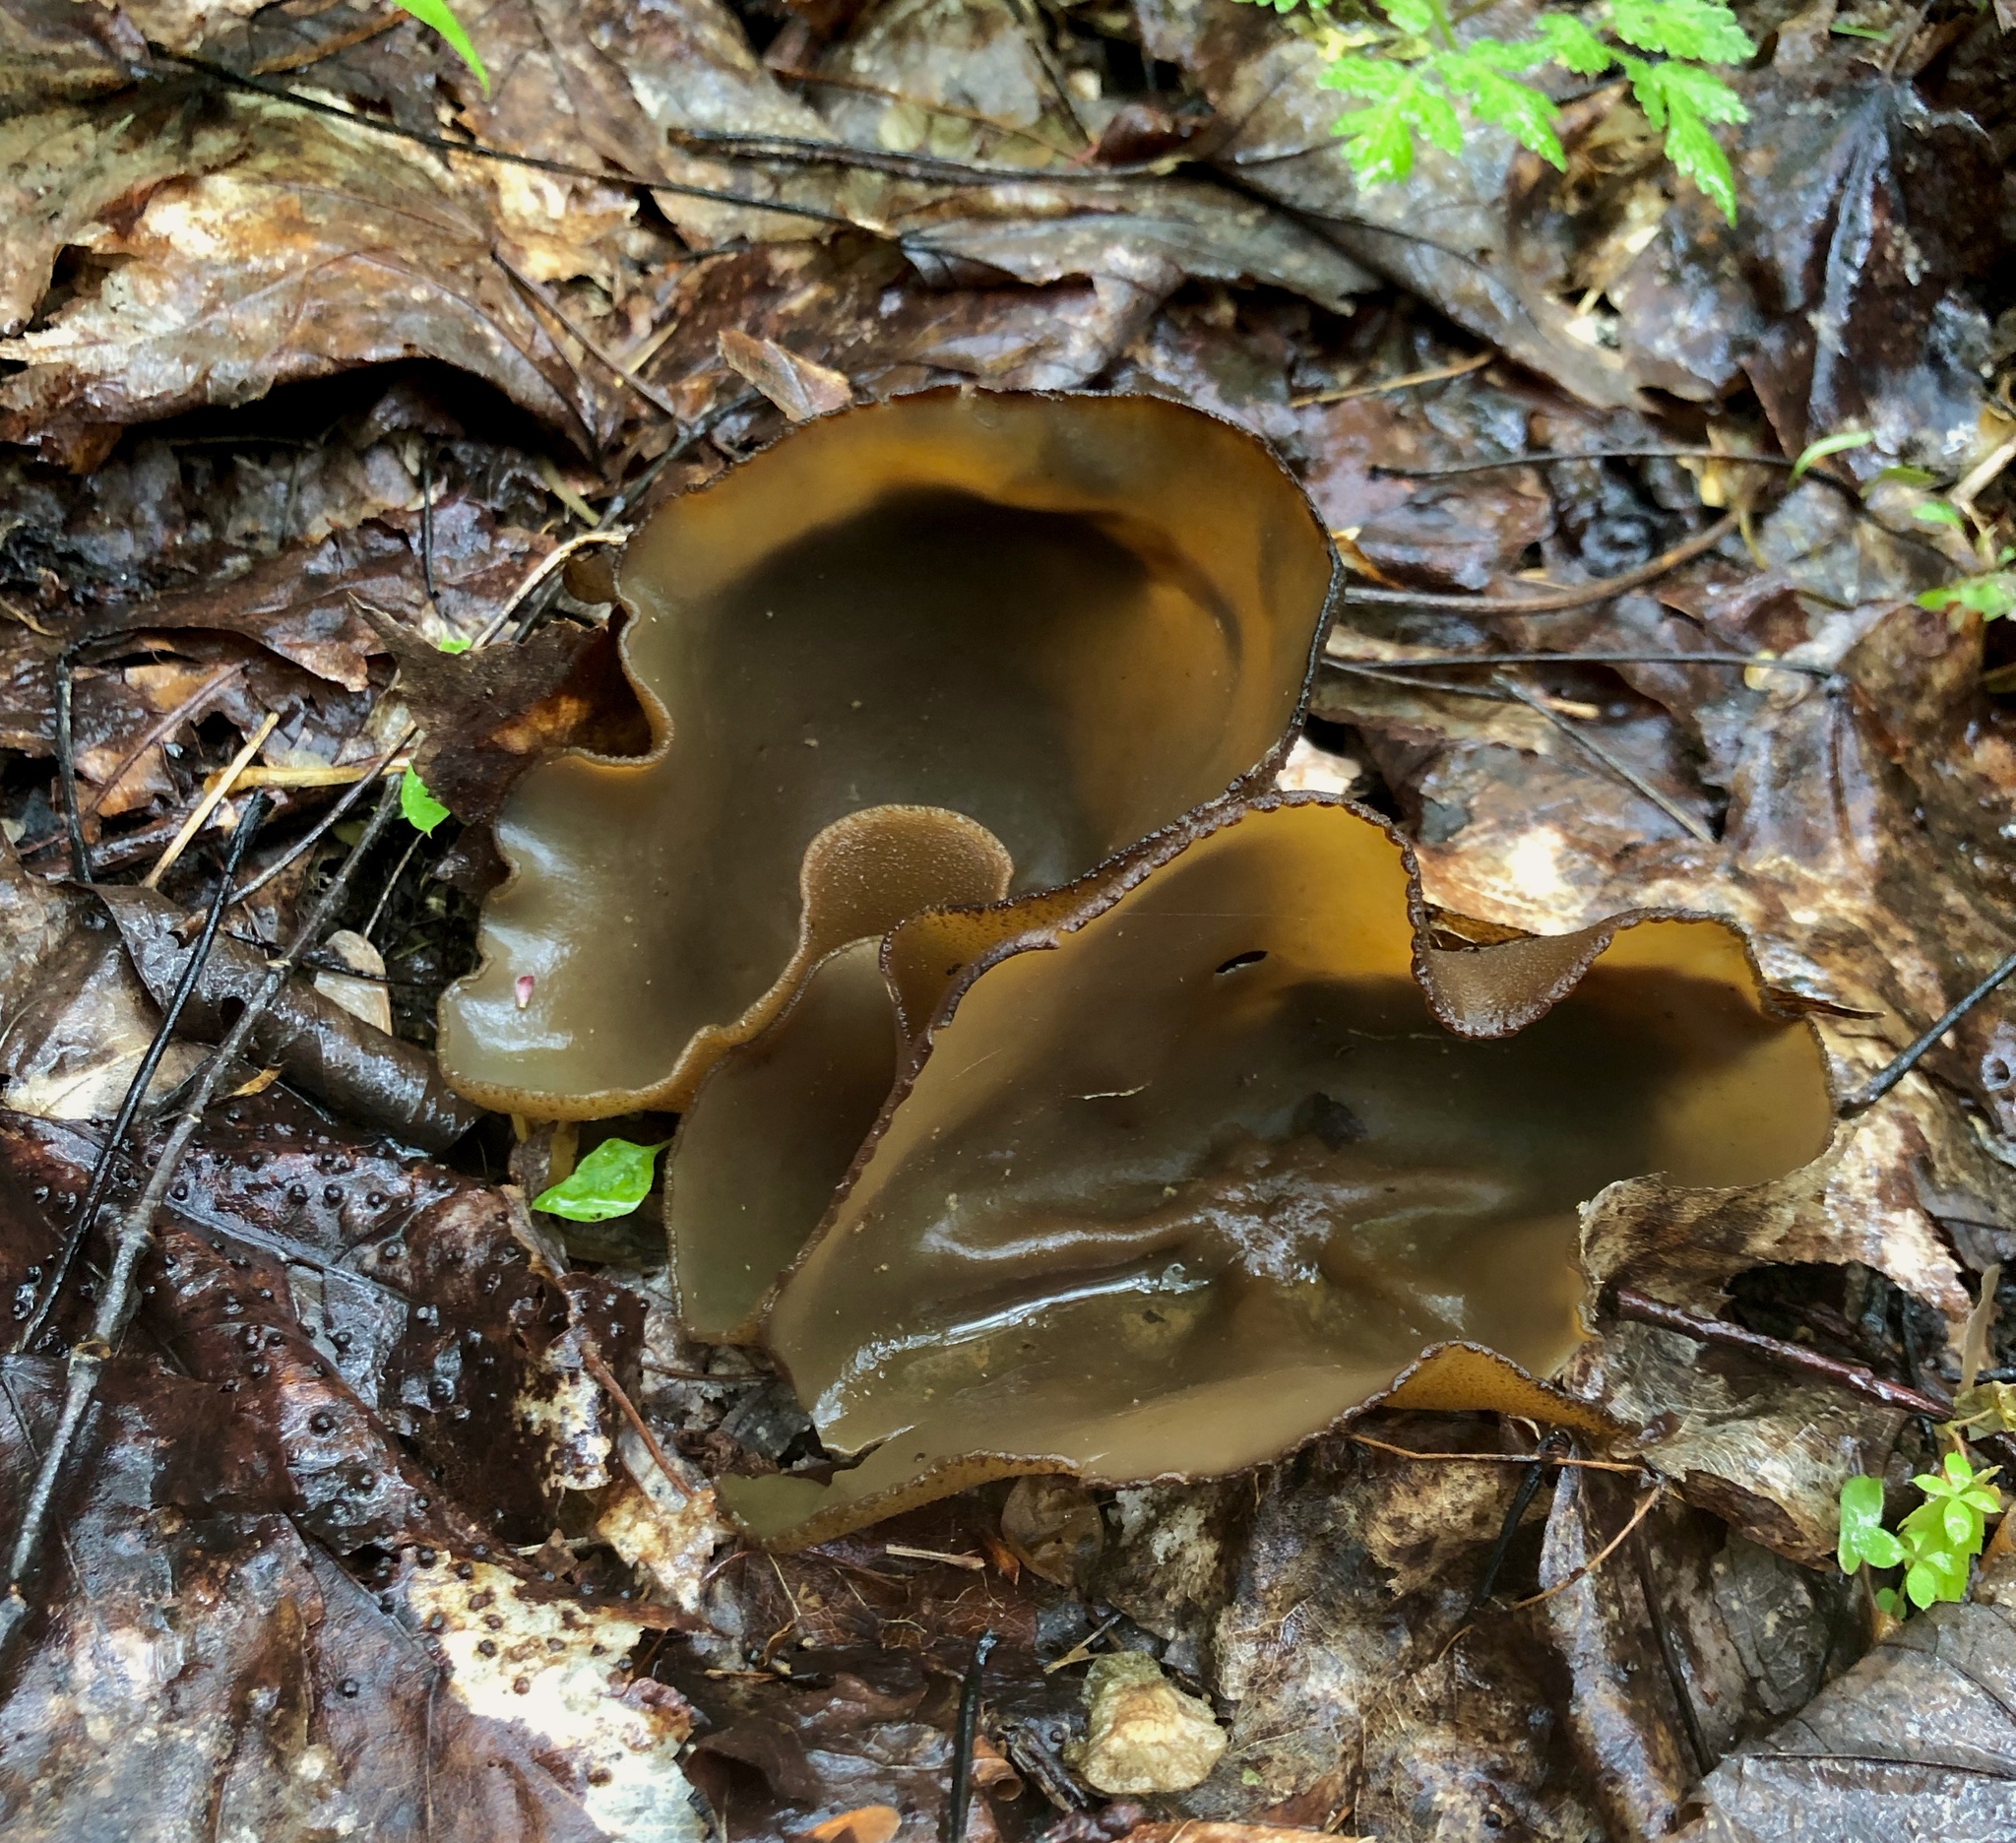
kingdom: Fungi
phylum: Ascomycota
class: Pezizomycetes
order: Pezizales
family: Pezizaceae
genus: Phylloscypha
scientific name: Phylloscypha phyllogena
